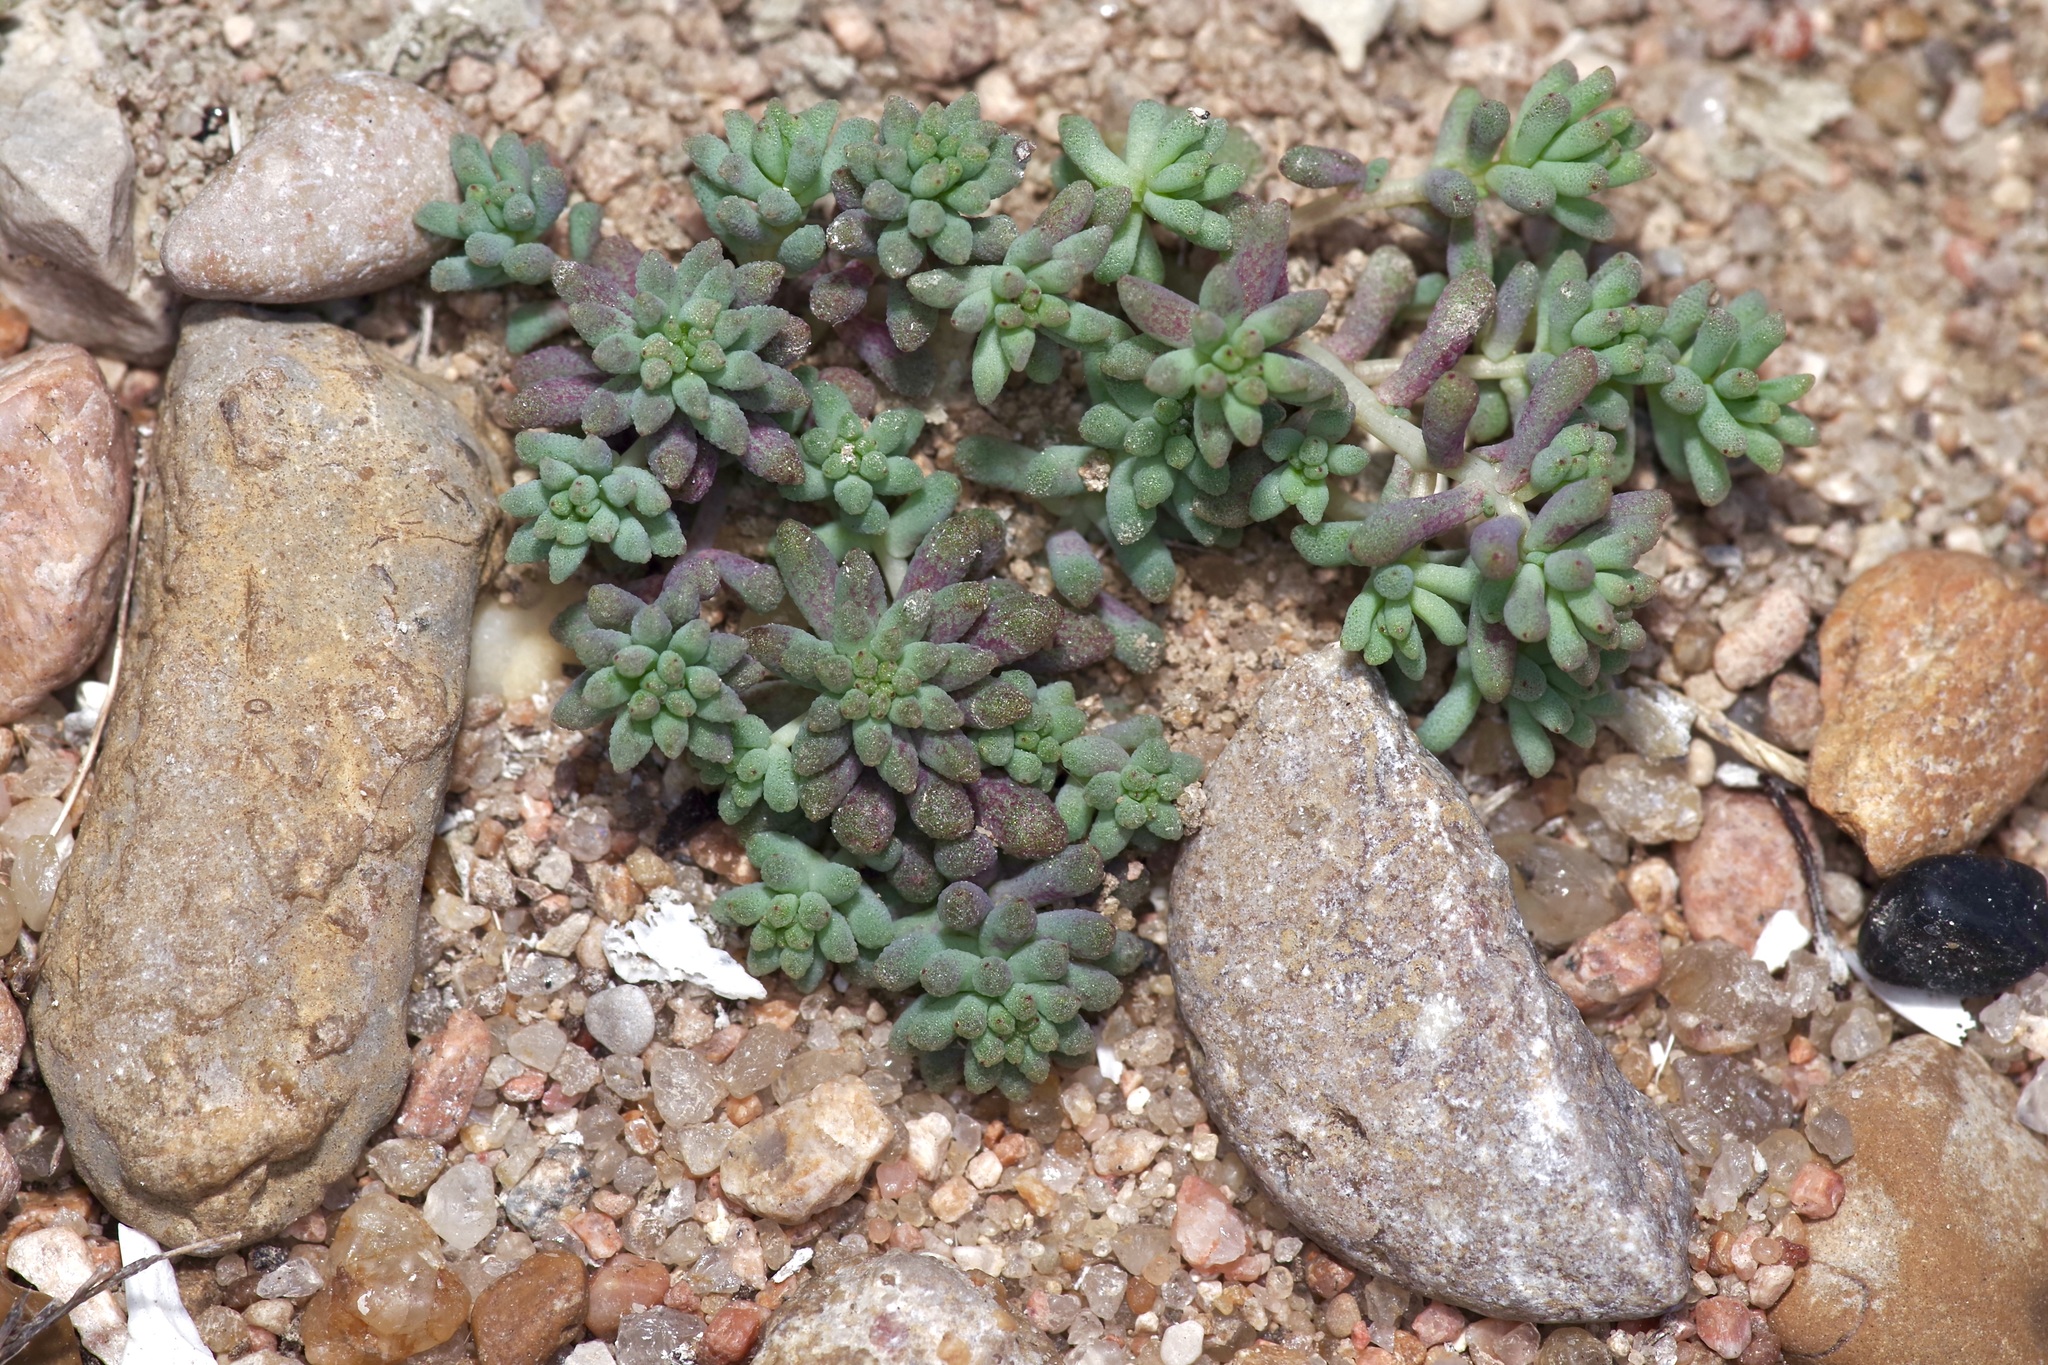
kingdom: Plantae
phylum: Tracheophyta
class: Magnoliopsida
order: Saxifragales
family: Crassulaceae
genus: Sedum
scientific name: Sedum nuttallii
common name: Yellow stonecrop
